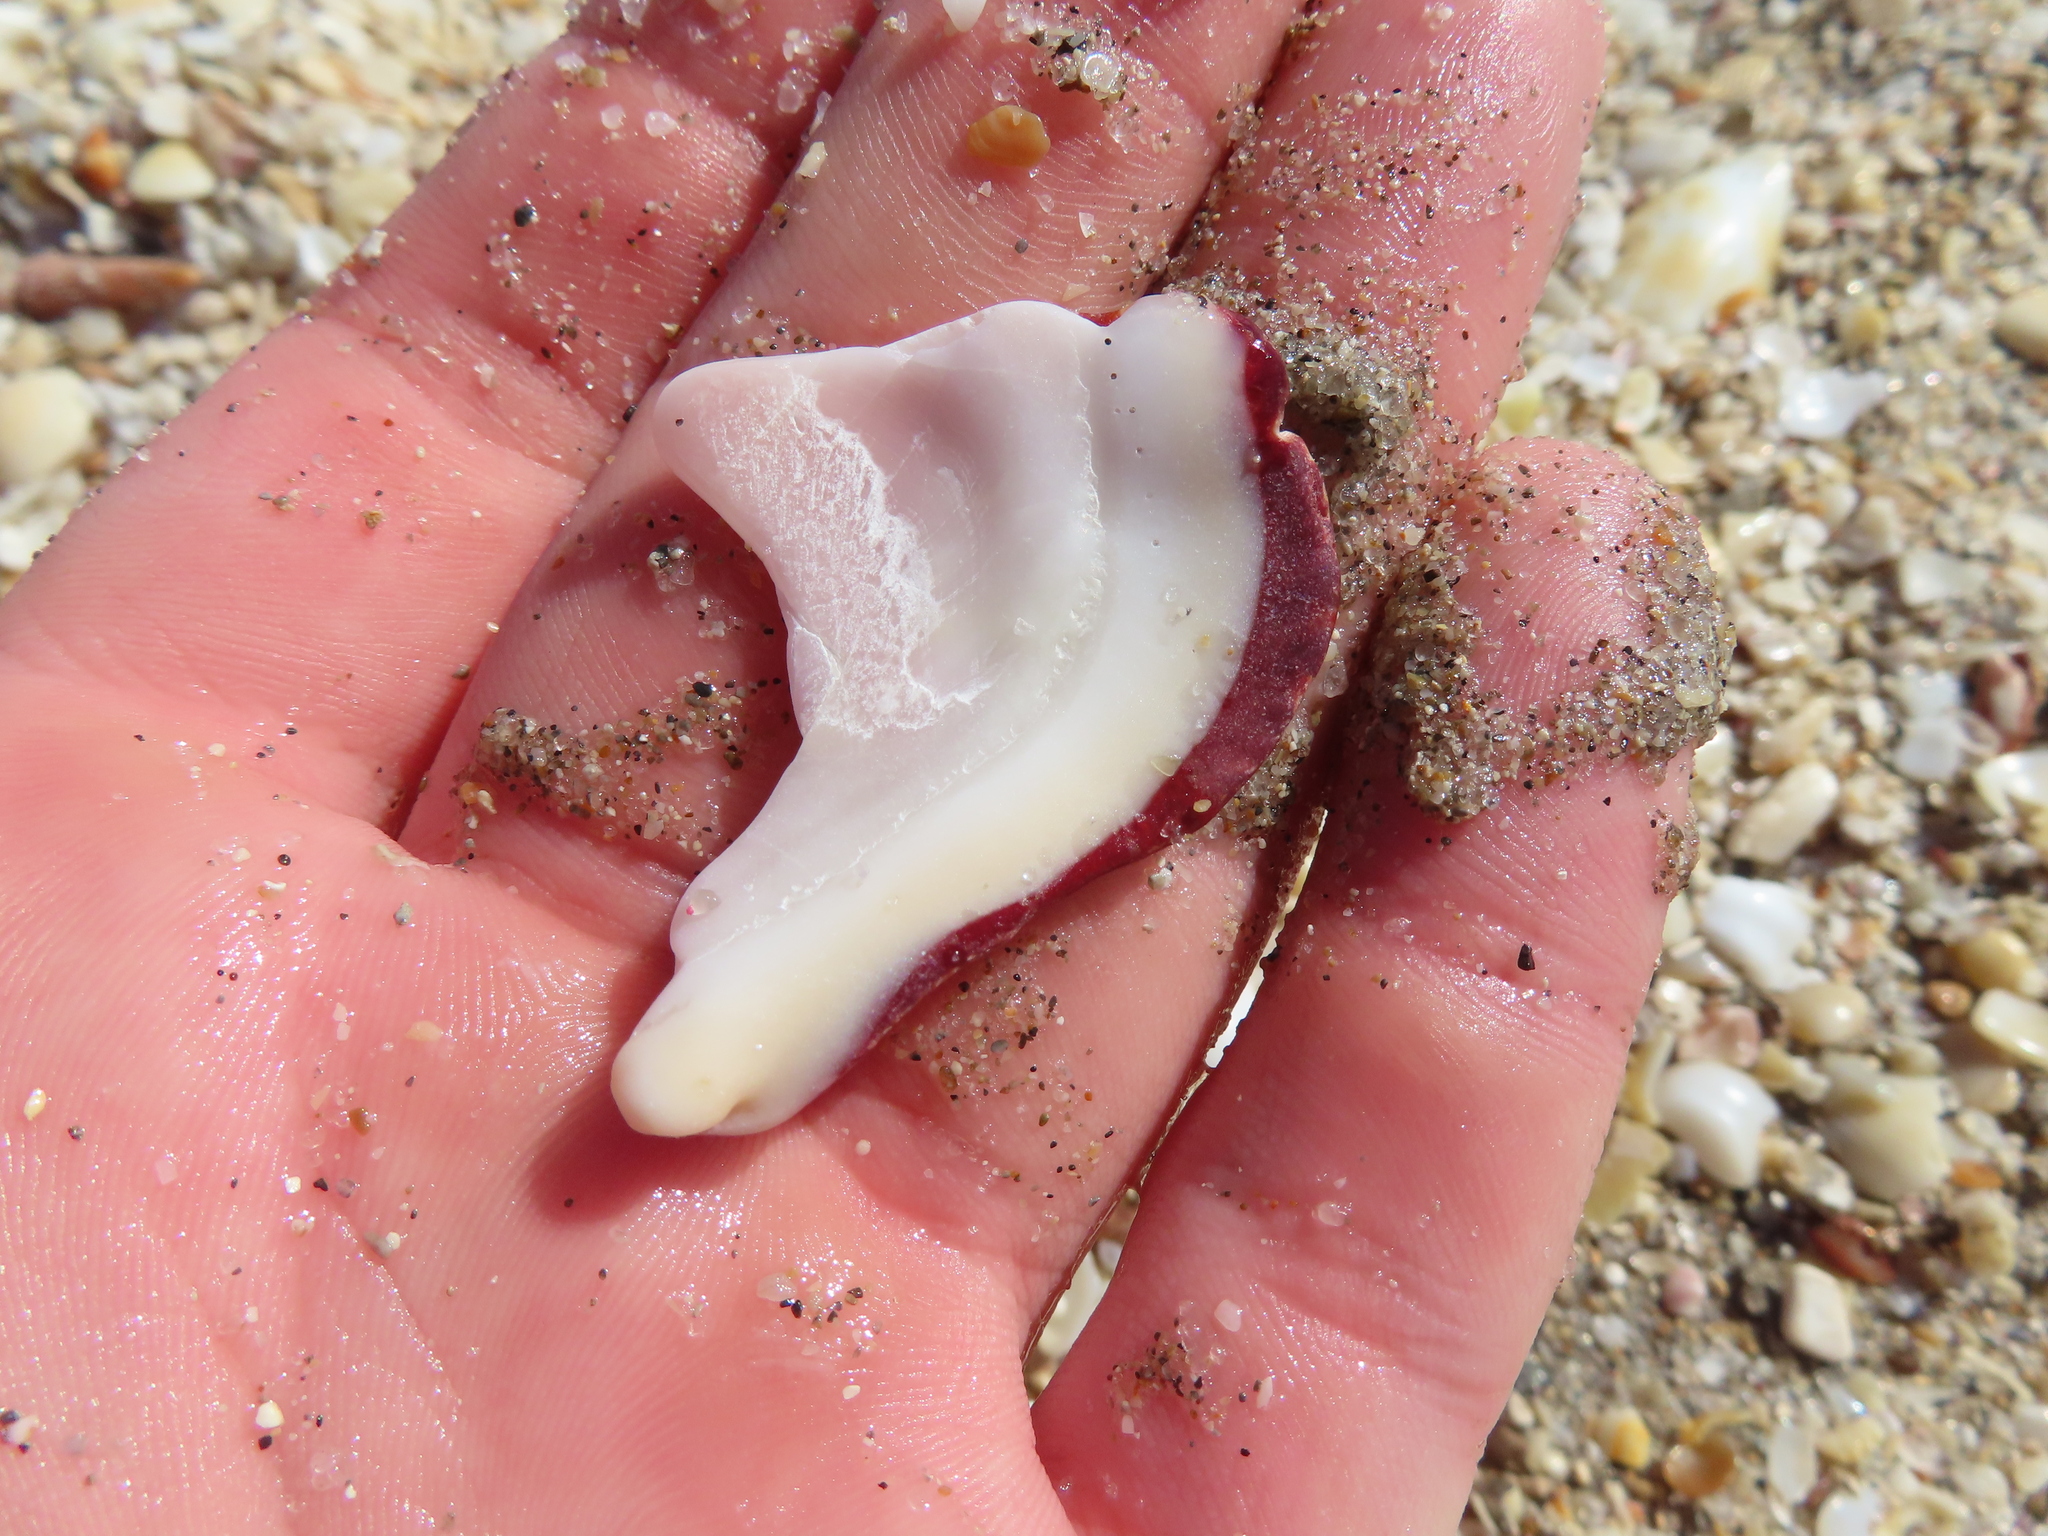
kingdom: Animalia
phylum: Mollusca
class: Bivalvia
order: Pectinida
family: Spondylidae
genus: Spondylus
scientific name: Spondylus tenuis
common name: Digitate thorny oyster
